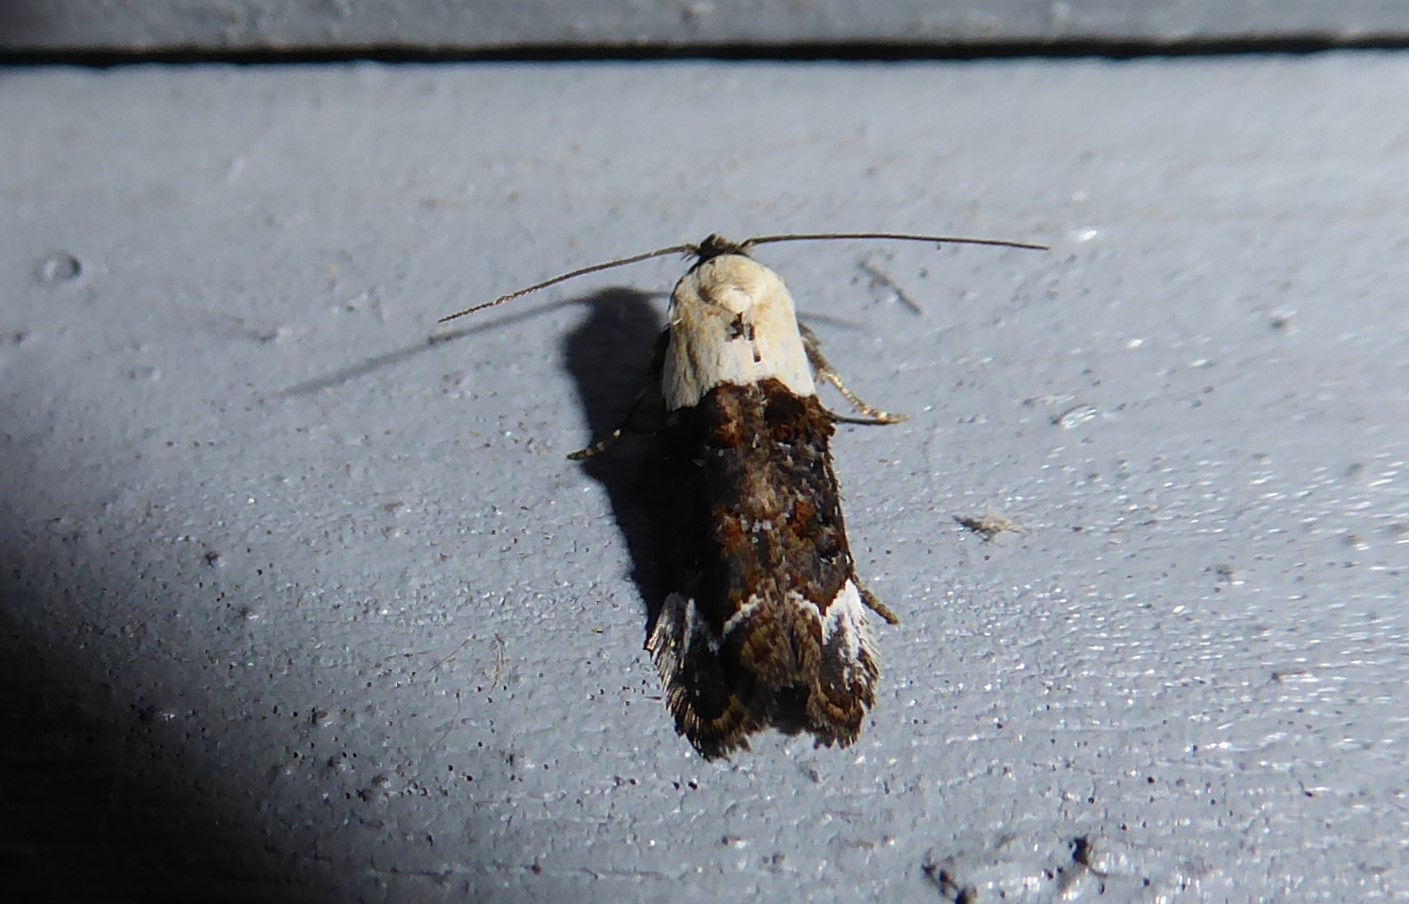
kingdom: Animalia
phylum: Arthropoda
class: Insecta
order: Lepidoptera
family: Oecophoridae
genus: Trachypepla
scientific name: Trachypepla euryleucota
